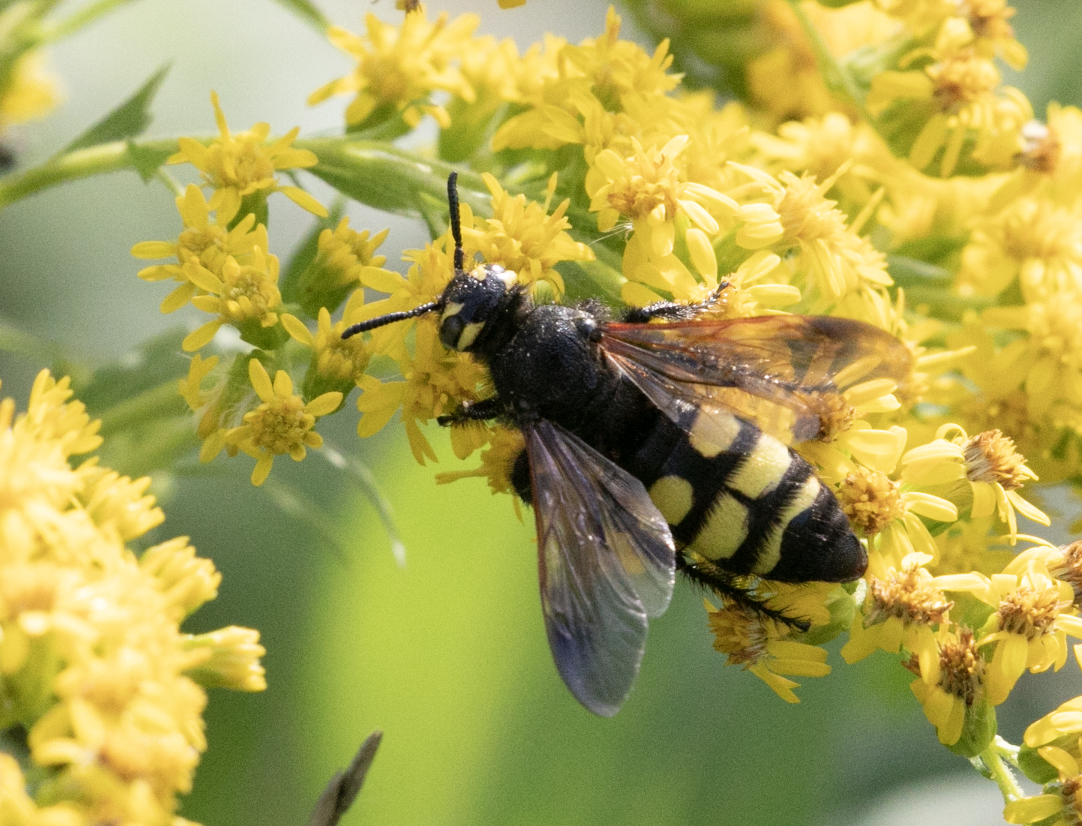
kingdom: Animalia
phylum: Arthropoda
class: Insecta
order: Hymenoptera
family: Vespidae
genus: Vespa
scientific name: Vespa sexmaculata
